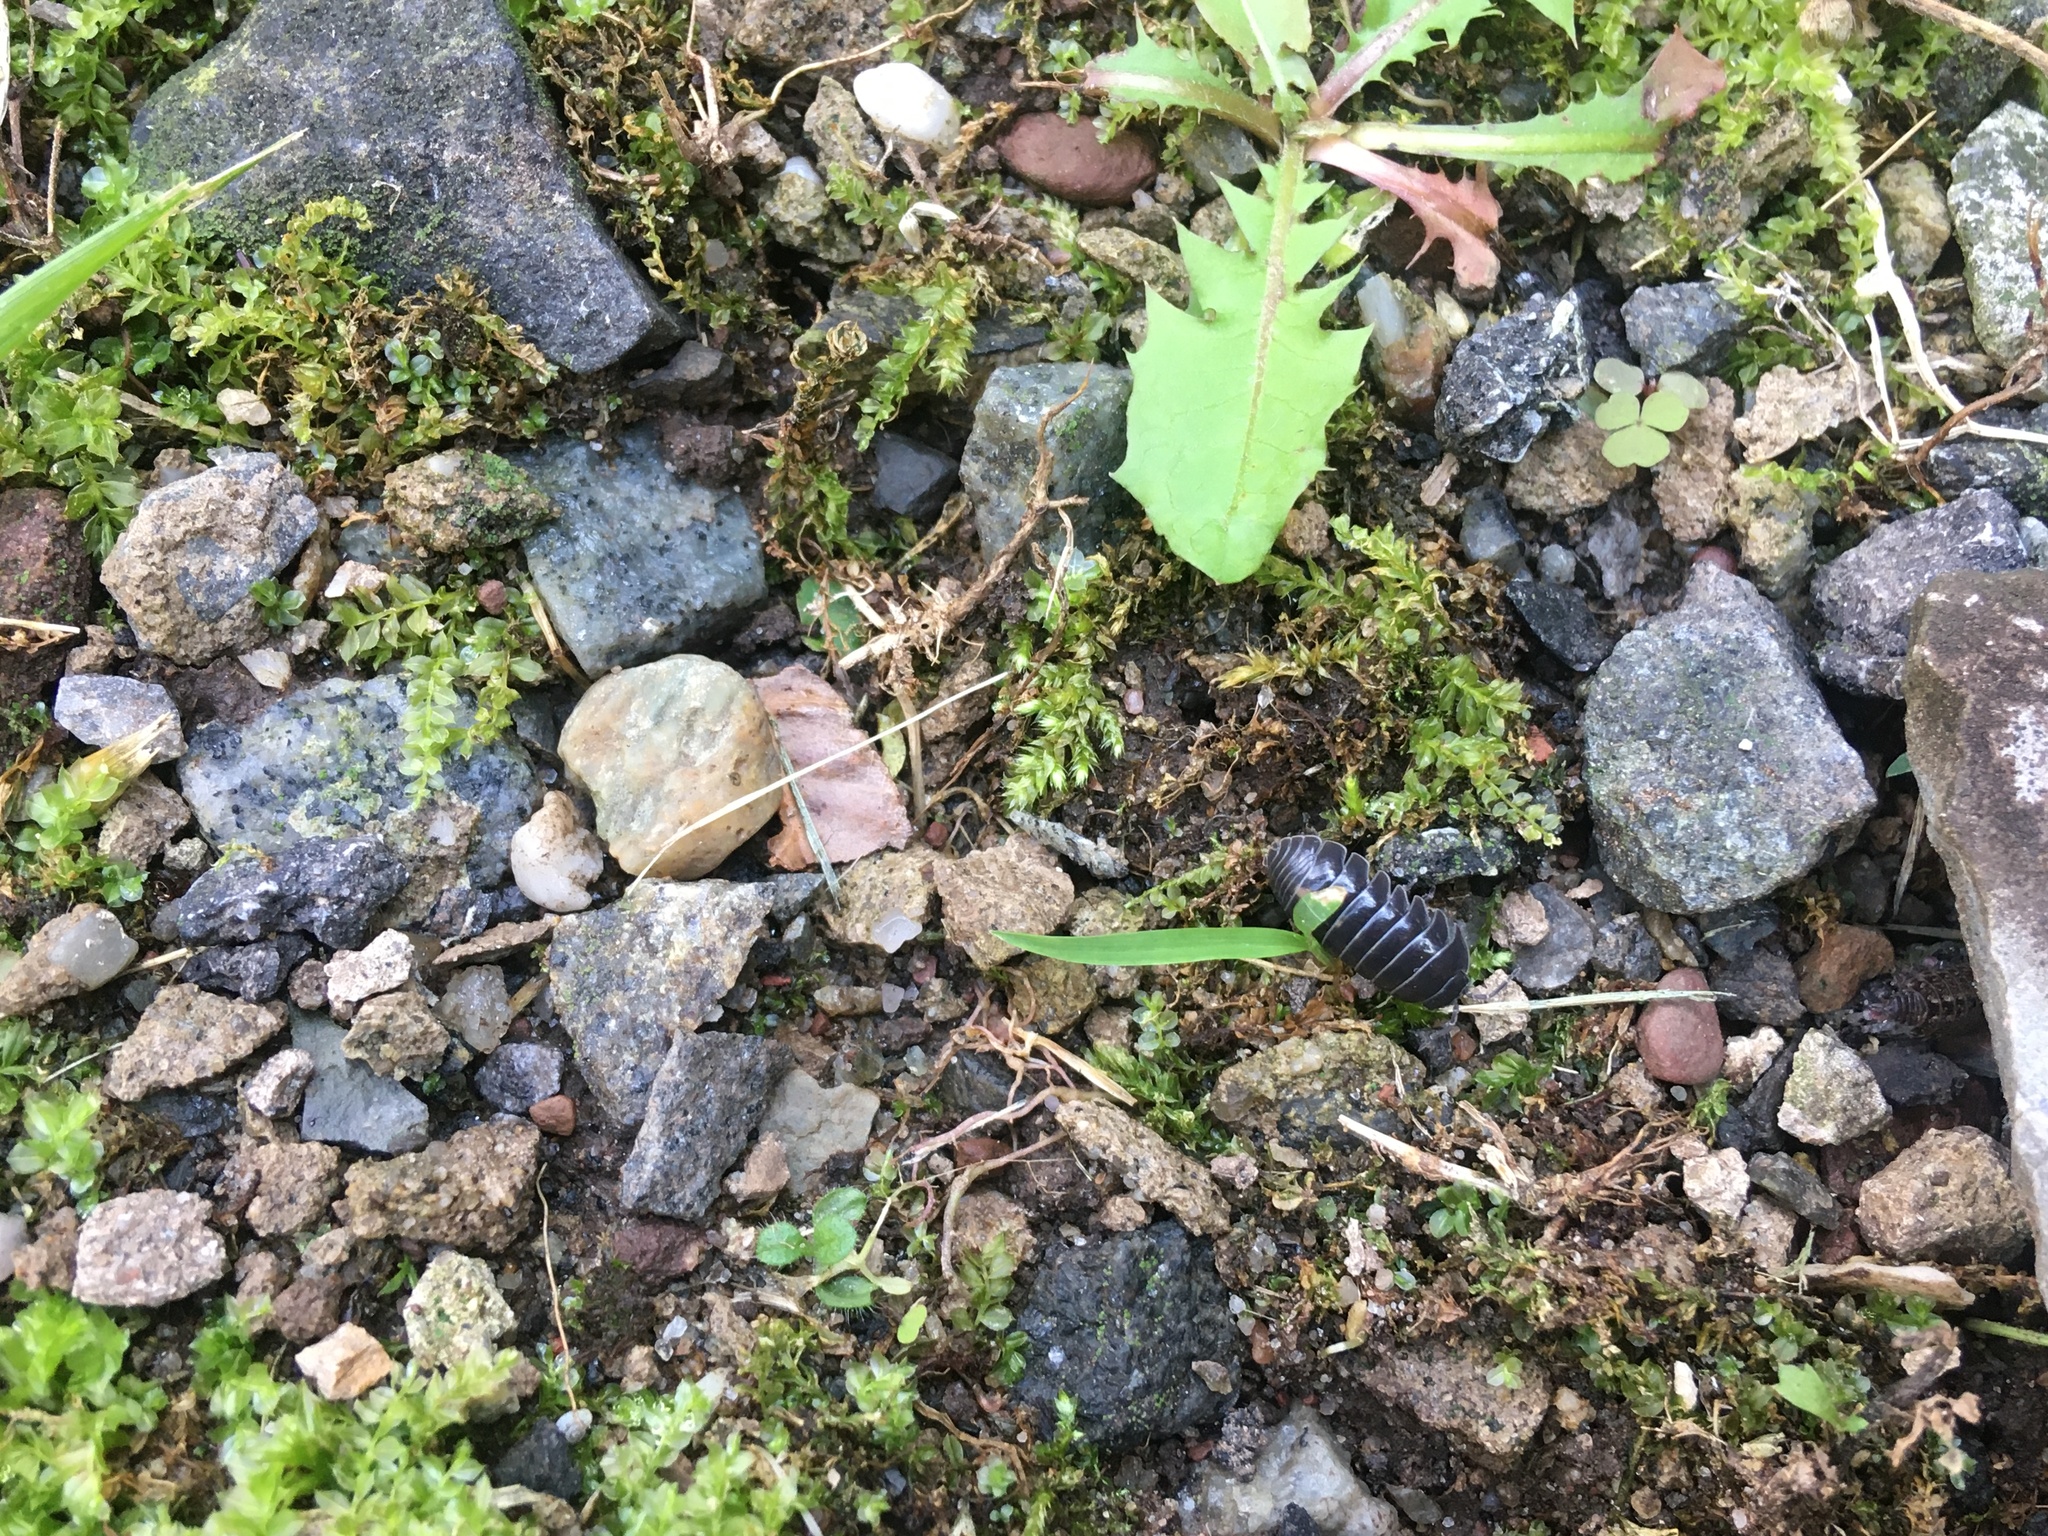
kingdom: Animalia
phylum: Arthropoda
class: Malacostraca
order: Isopoda
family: Armadillidiidae
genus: Armadillidium
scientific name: Armadillidium vulgare
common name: Common pill woodlouse
